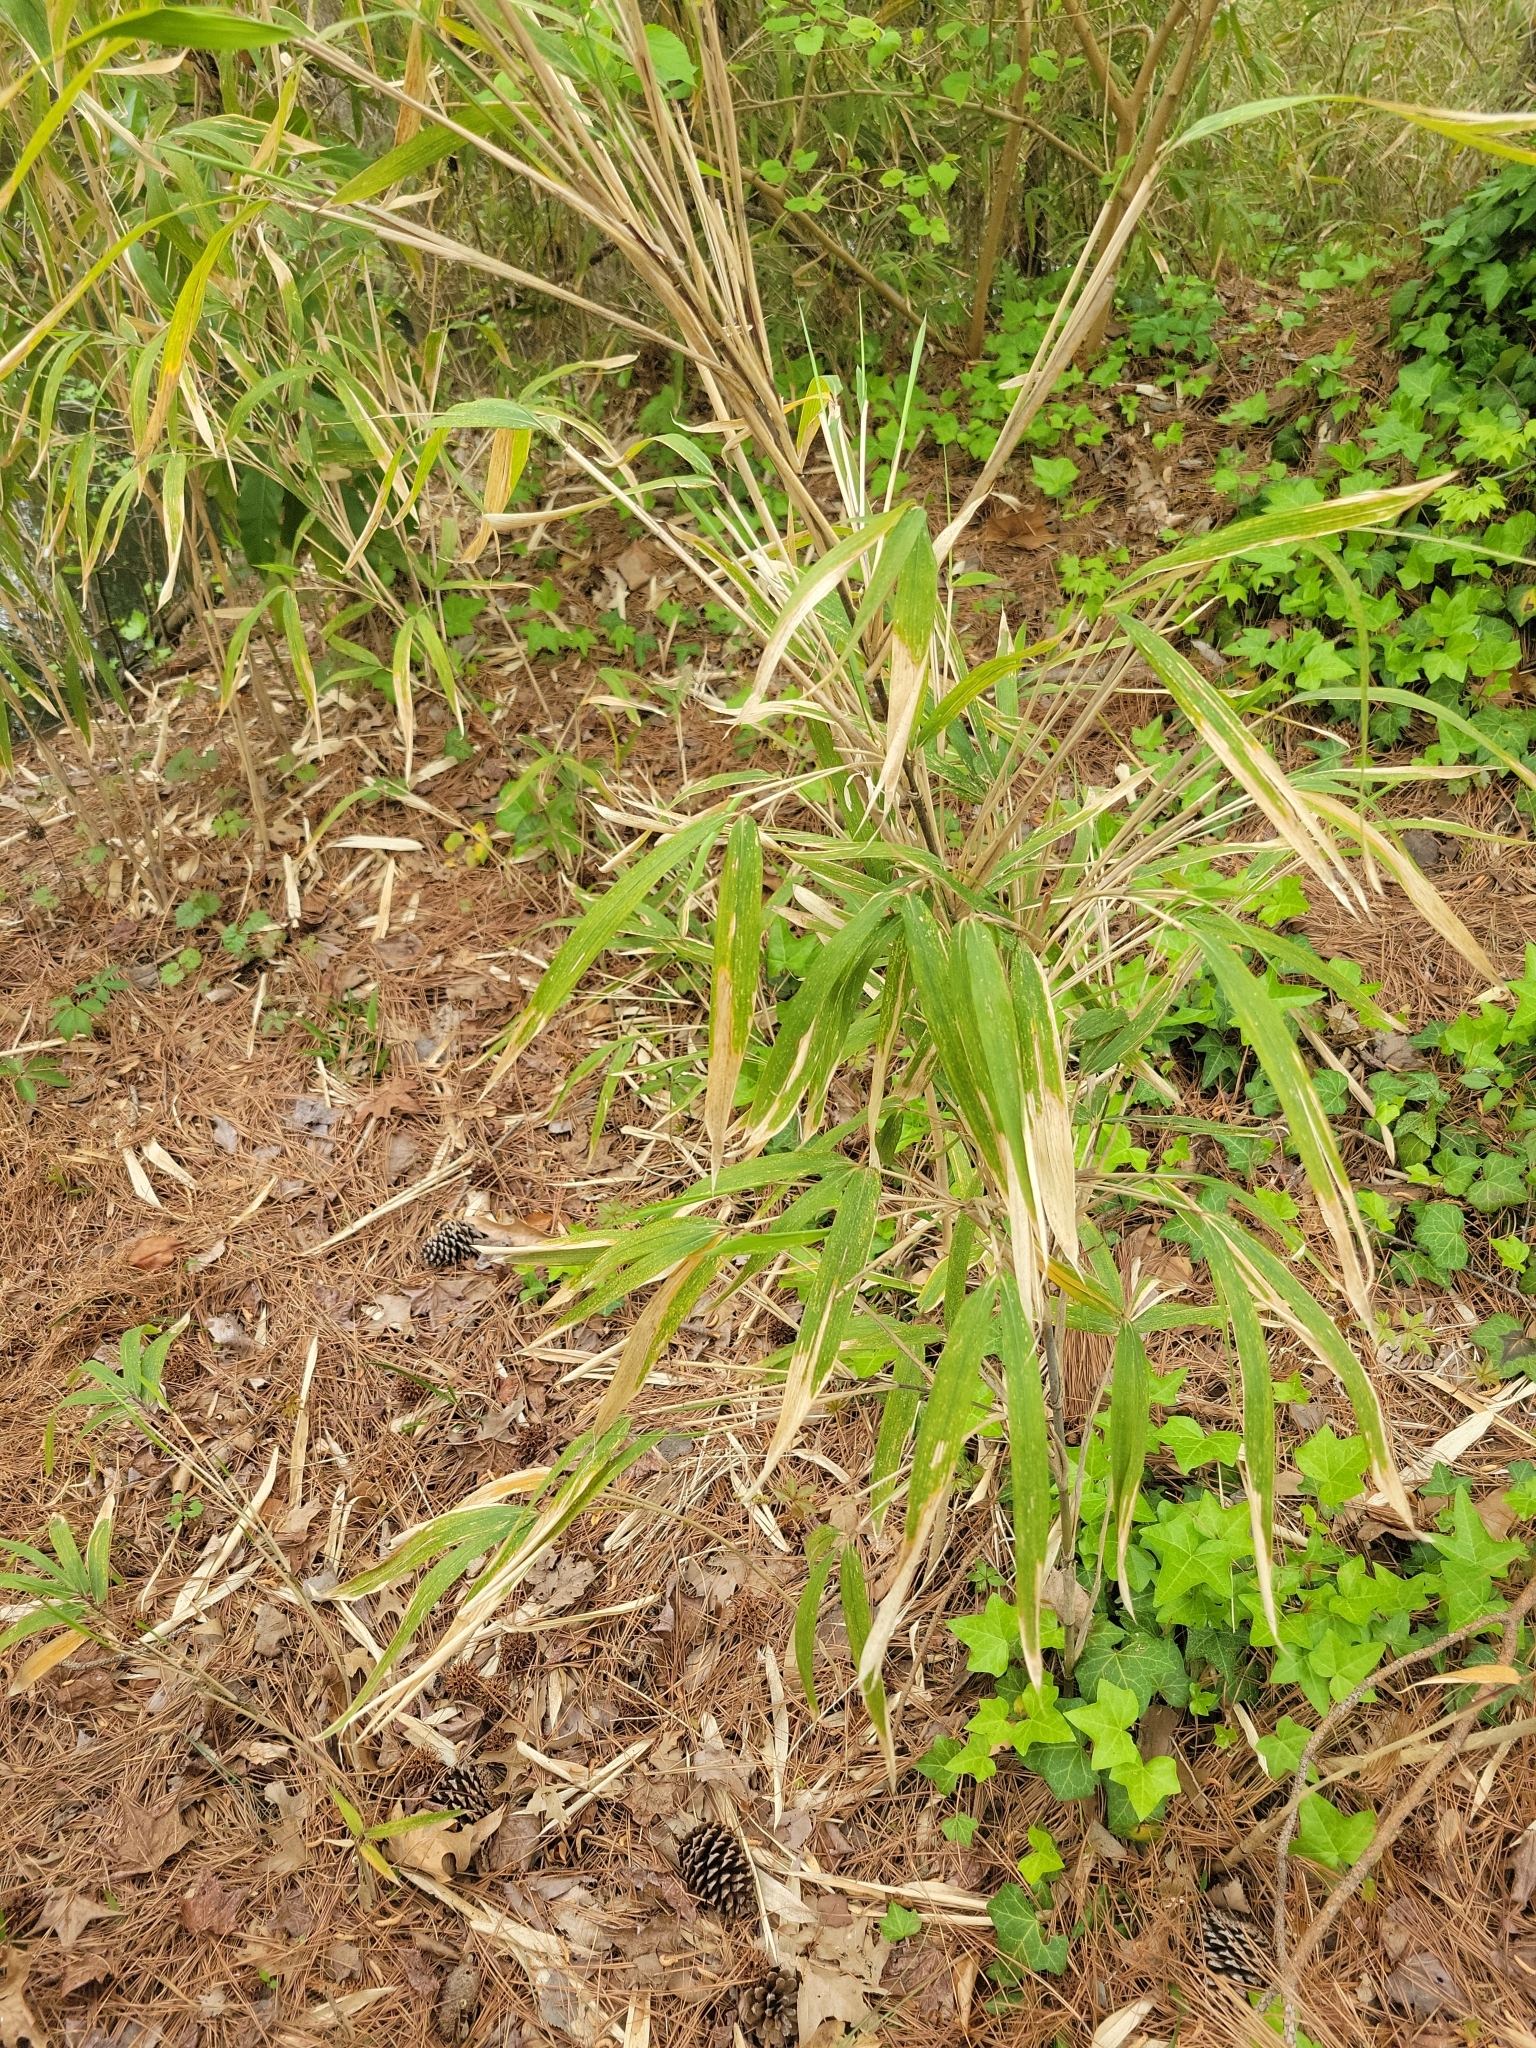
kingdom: Plantae
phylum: Tracheophyta
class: Liliopsida
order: Poales
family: Poaceae
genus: Arundinaria
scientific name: Arundinaria tecta
